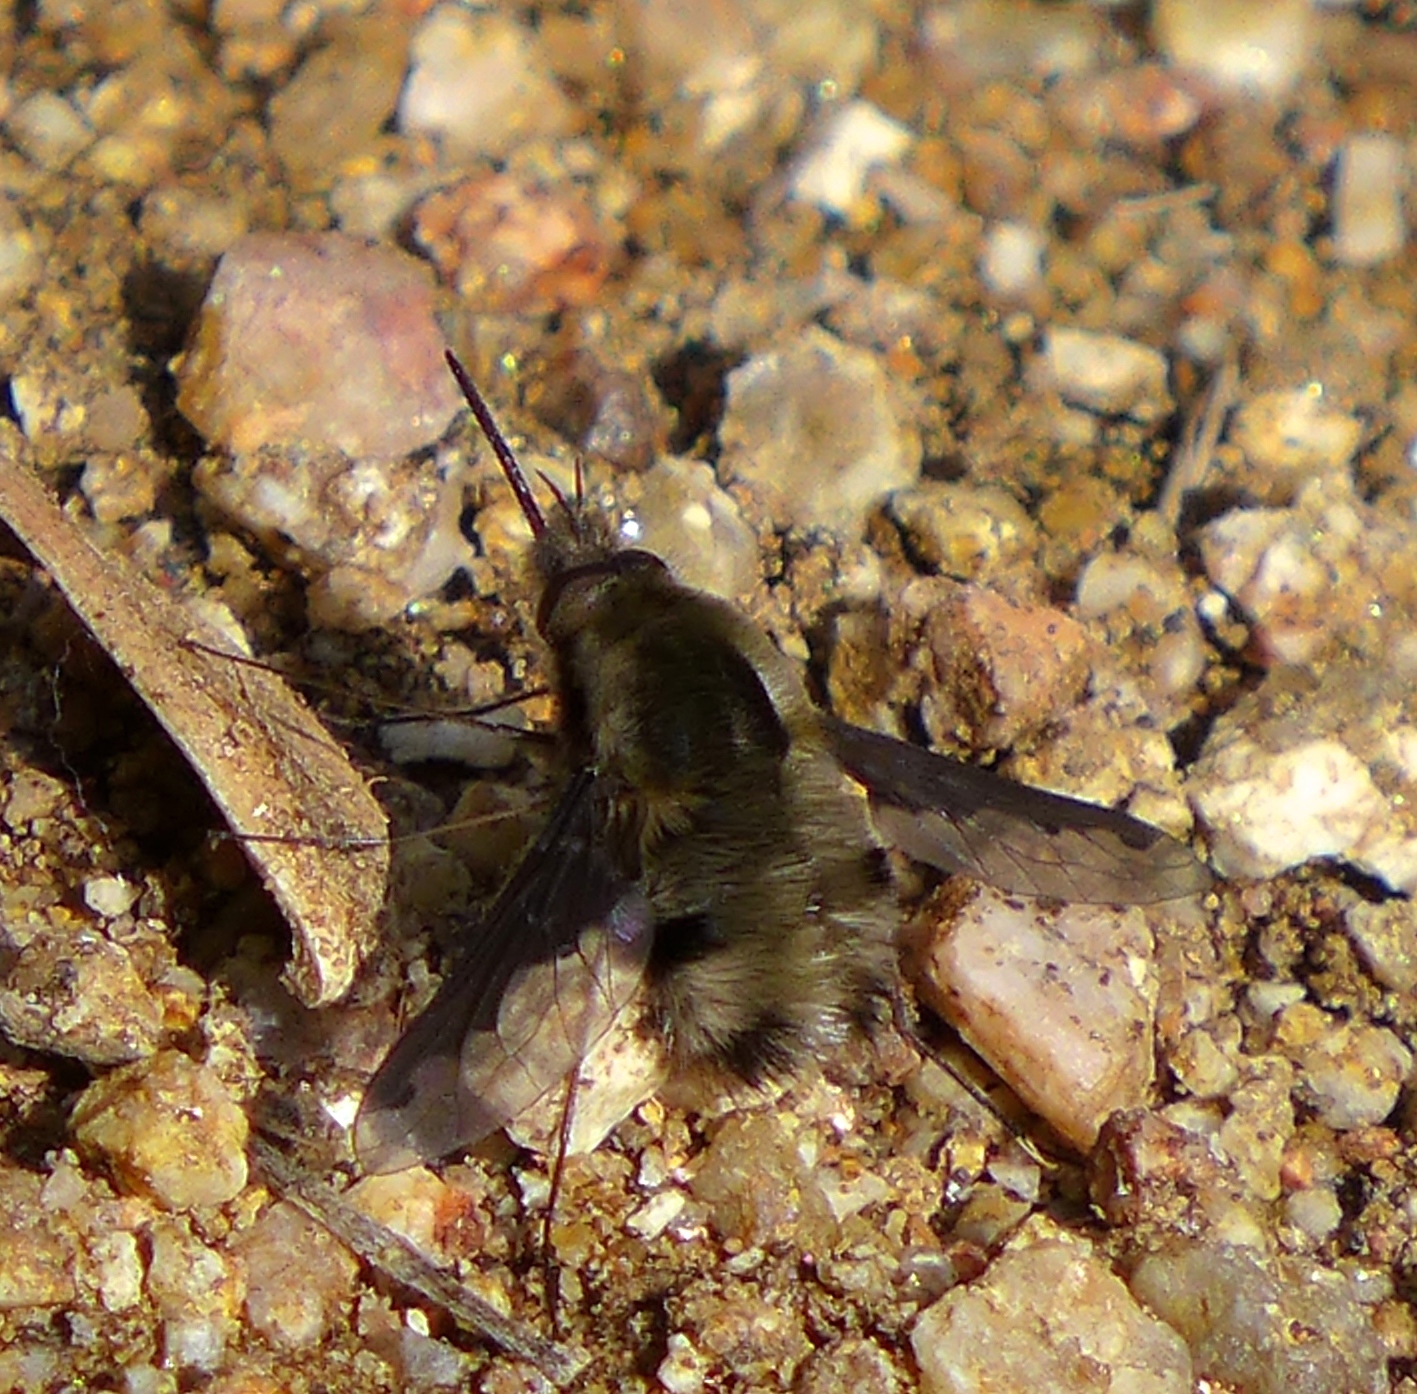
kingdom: Animalia
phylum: Arthropoda
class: Insecta
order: Diptera
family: Bombyliidae
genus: Bombylius
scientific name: Bombylius major
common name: Bee fly
